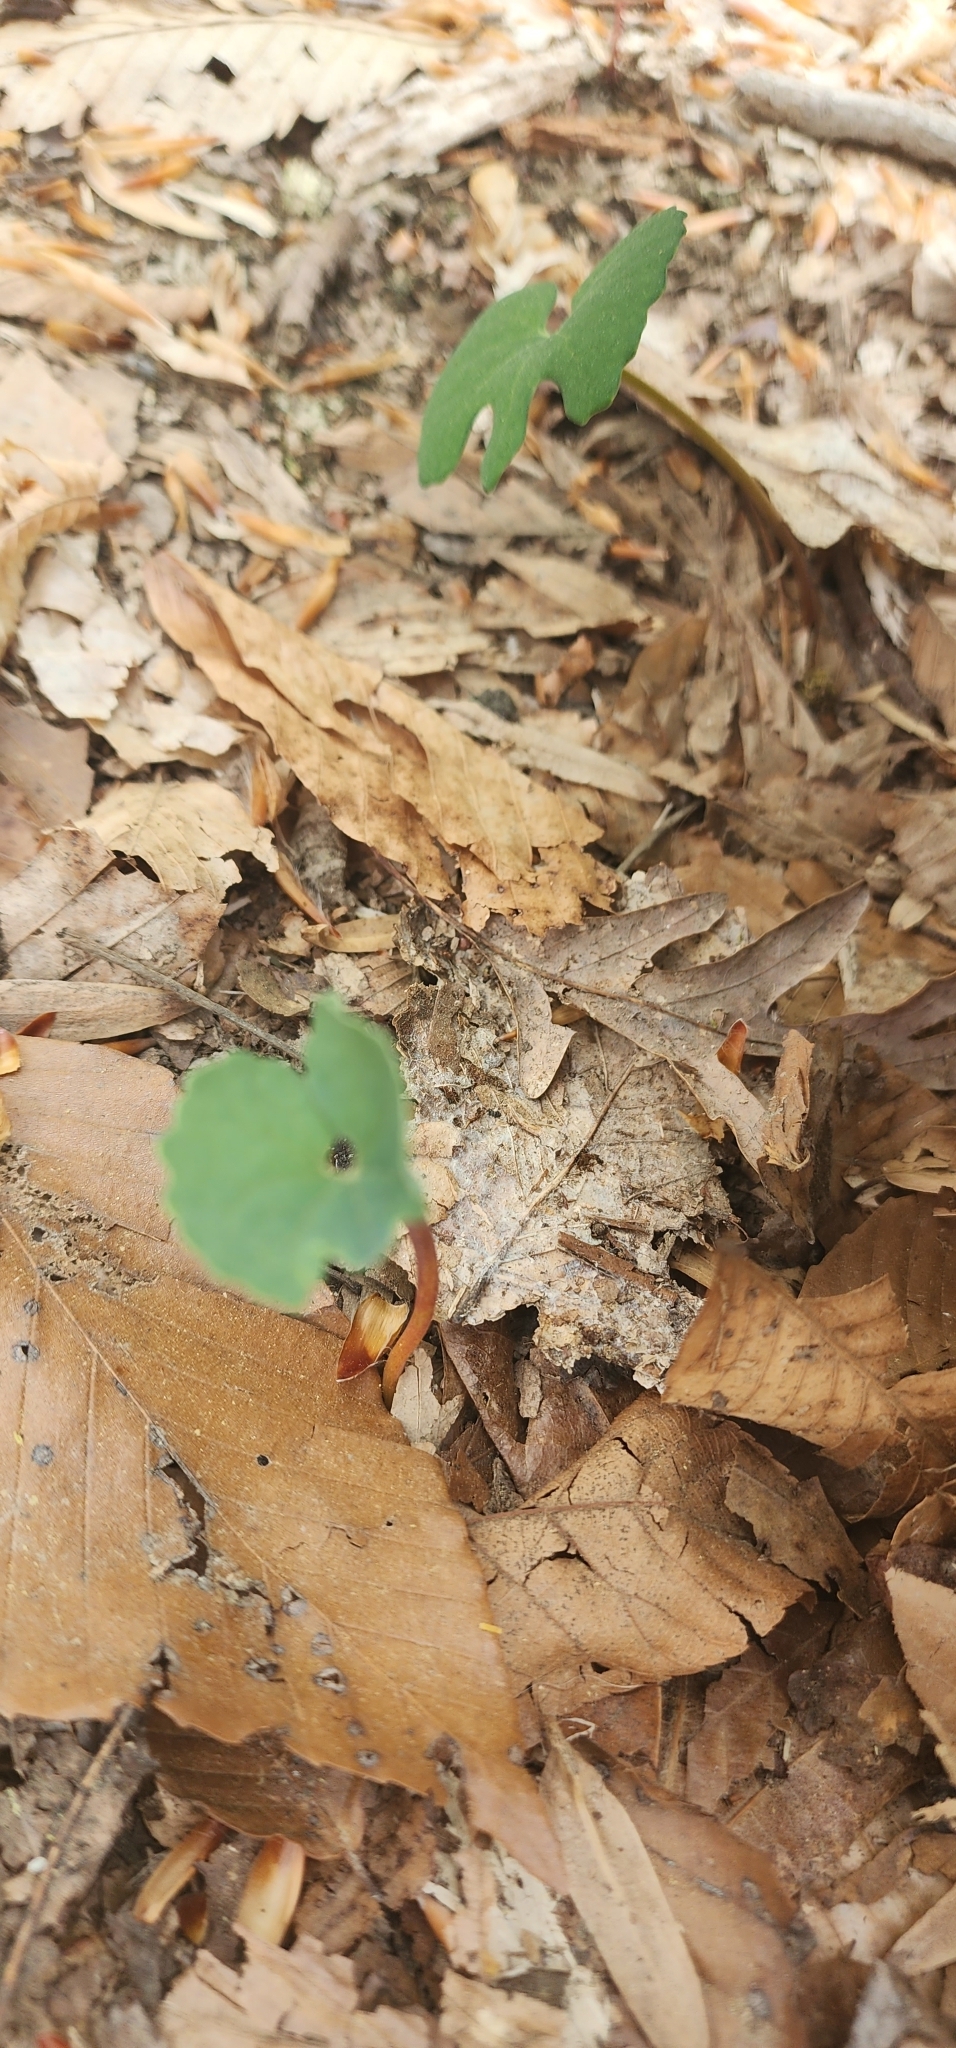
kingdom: Plantae
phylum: Tracheophyta
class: Magnoliopsida
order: Ranunculales
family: Papaveraceae
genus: Sanguinaria
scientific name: Sanguinaria canadensis
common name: Bloodroot
